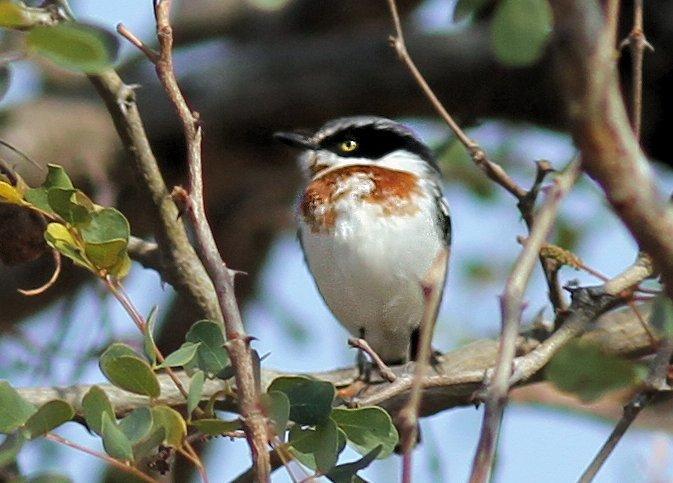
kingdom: Animalia
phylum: Chordata
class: Aves
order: Passeriformes
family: Platysteiridae
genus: Batis
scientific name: Batis molitor
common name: Chinspot batis
